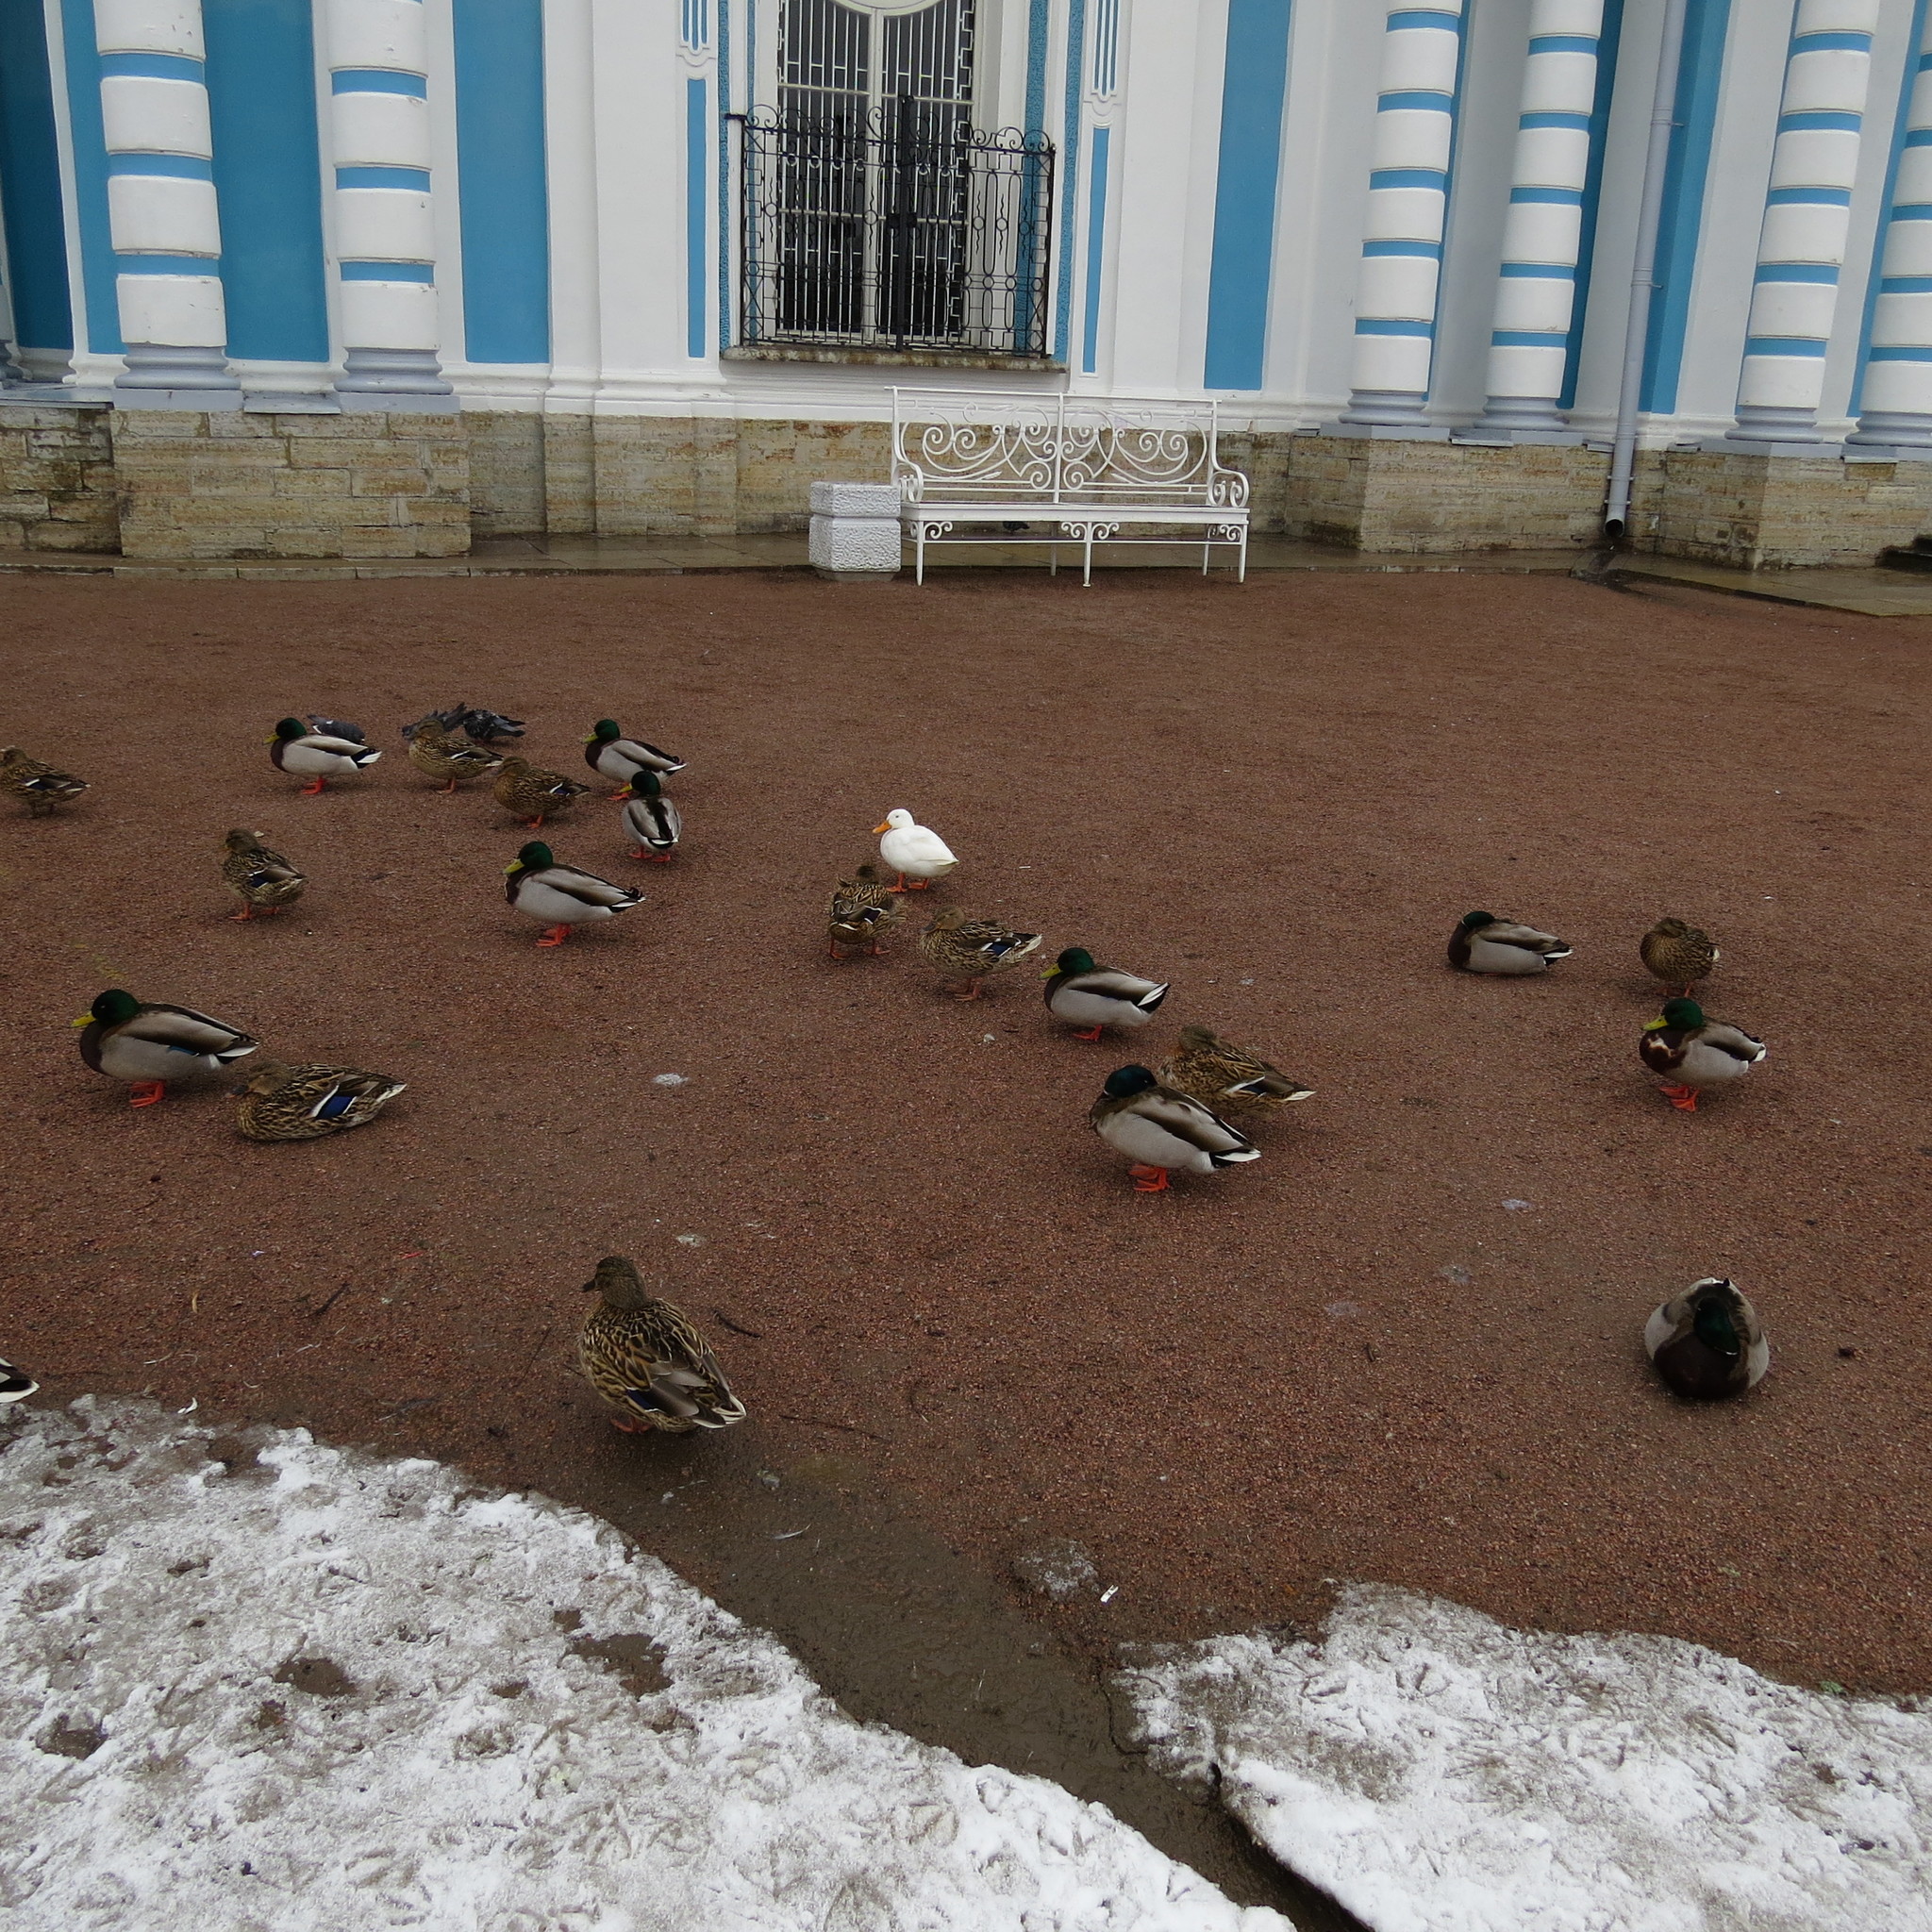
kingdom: Animalia
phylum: Chordata
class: Aves
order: Anseriformes
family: Anatidae
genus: Anas
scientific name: Anas platyrhynchos
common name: Mallard
